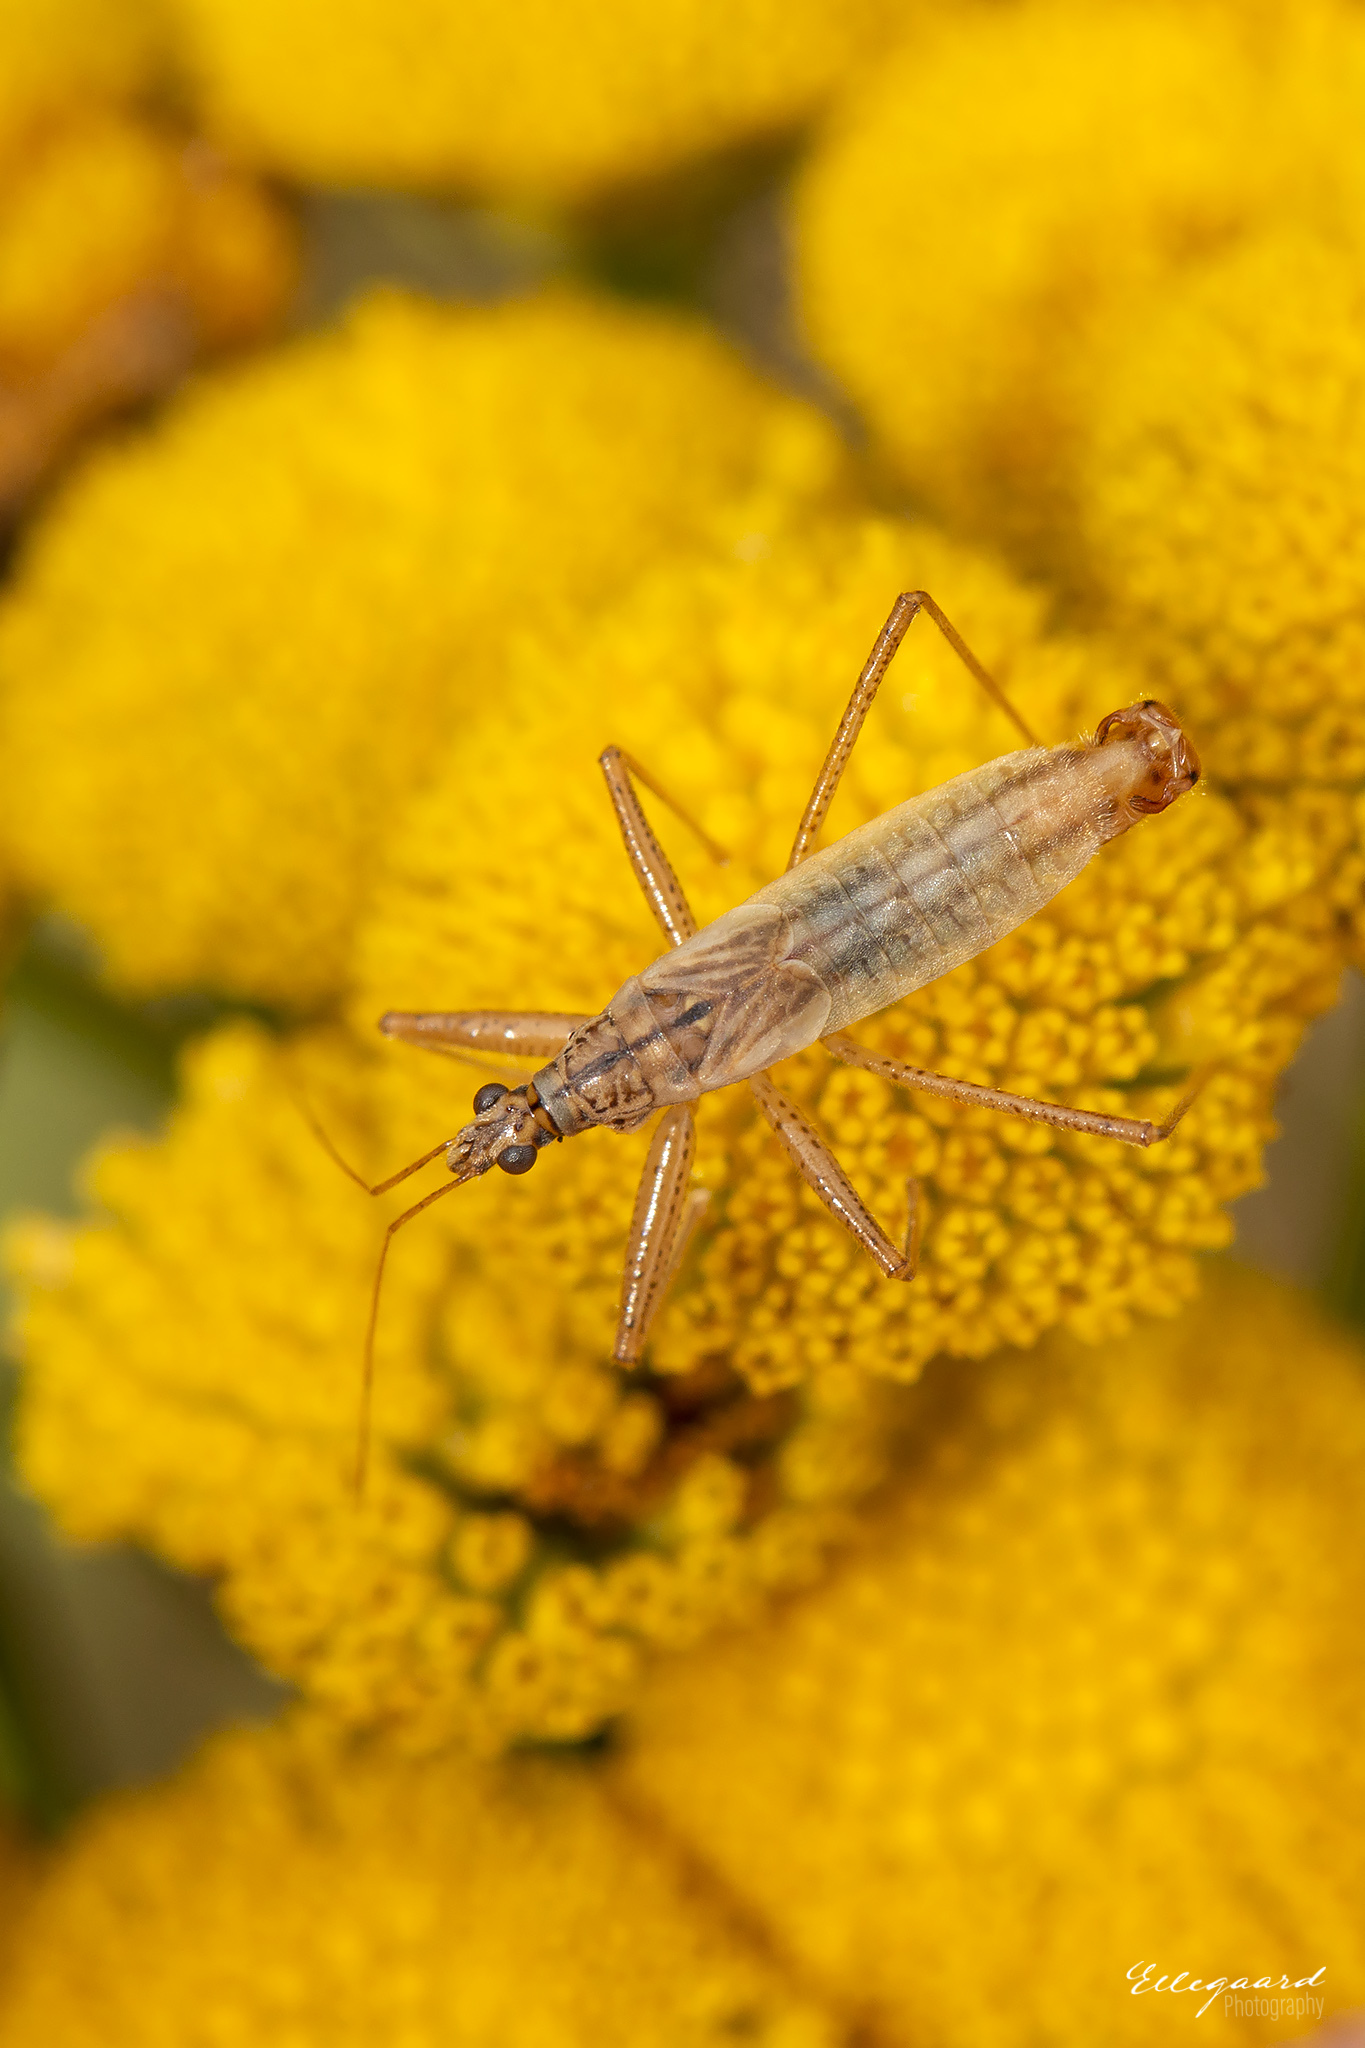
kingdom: Animalia
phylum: Arthropoda
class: Insecta
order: Hemiptera
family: Nabidae
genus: Nabis
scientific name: Nabis limbatus
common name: Marsh damselbug
